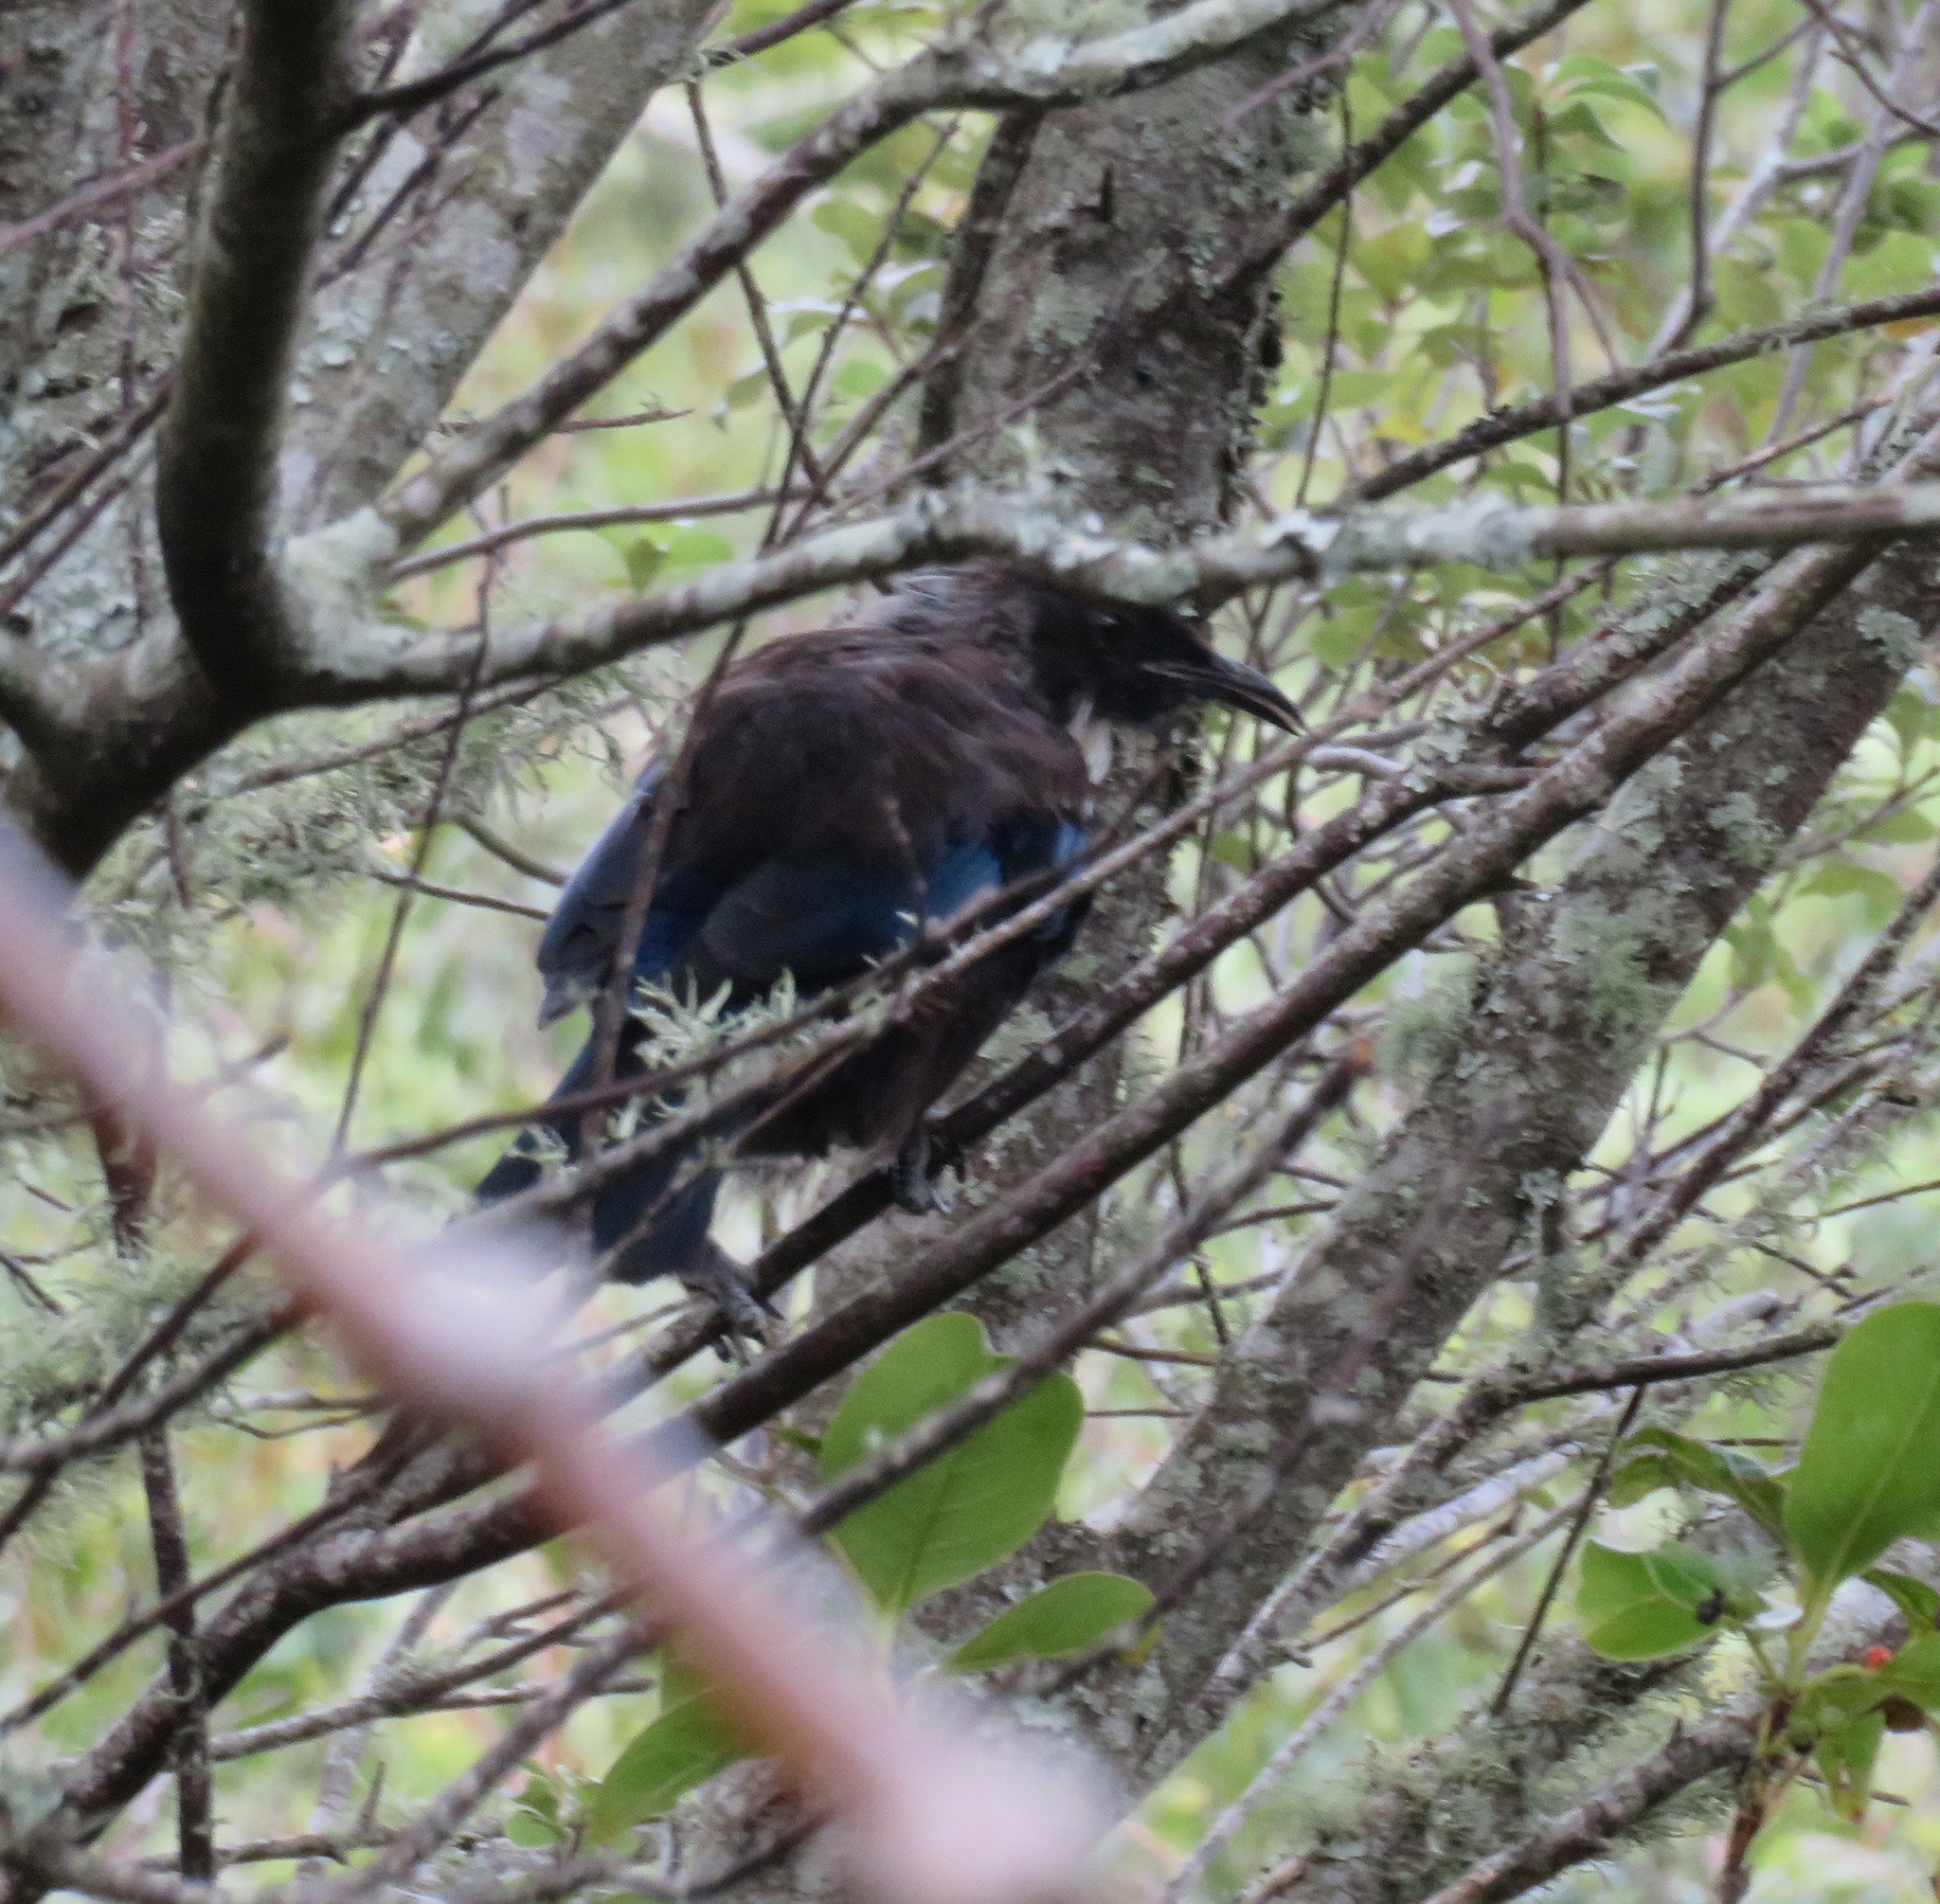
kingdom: Animalia
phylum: Chordata
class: Aves
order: Passeriformes
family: Meliphagidae
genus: Prosthemadera
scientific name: Prosthemadera novaeseelandiae
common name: Tui
